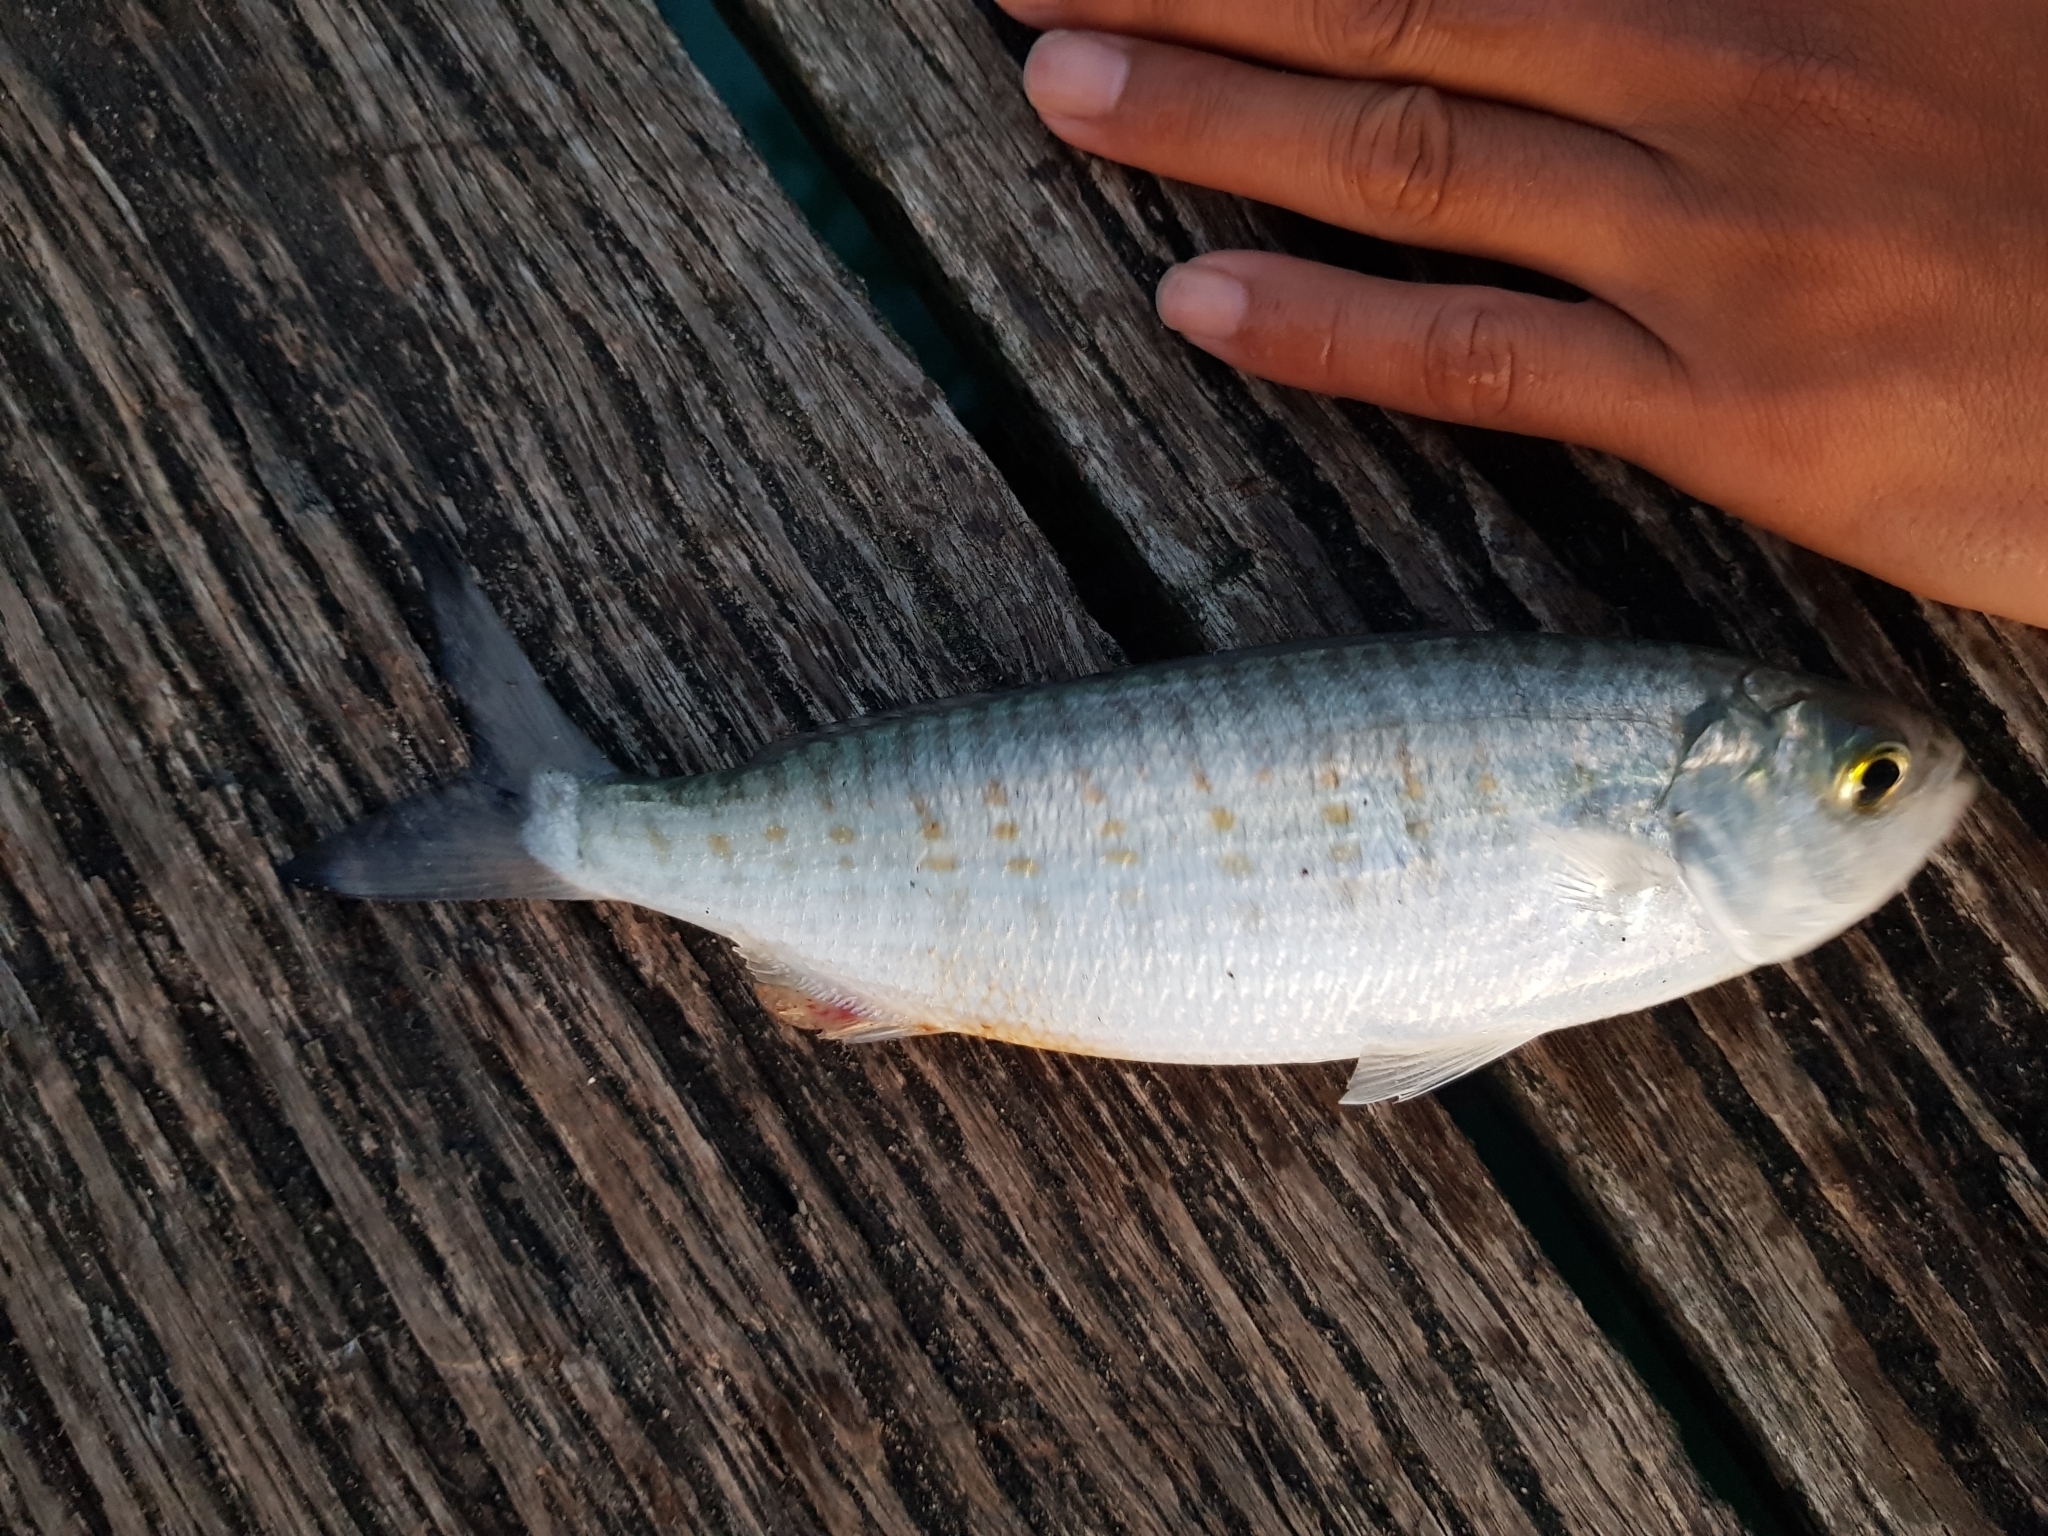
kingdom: Animalia
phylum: Chordata
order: Perciformes
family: Arripidae
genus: Arripis
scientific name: Arripis georgianus
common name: Australian herring
